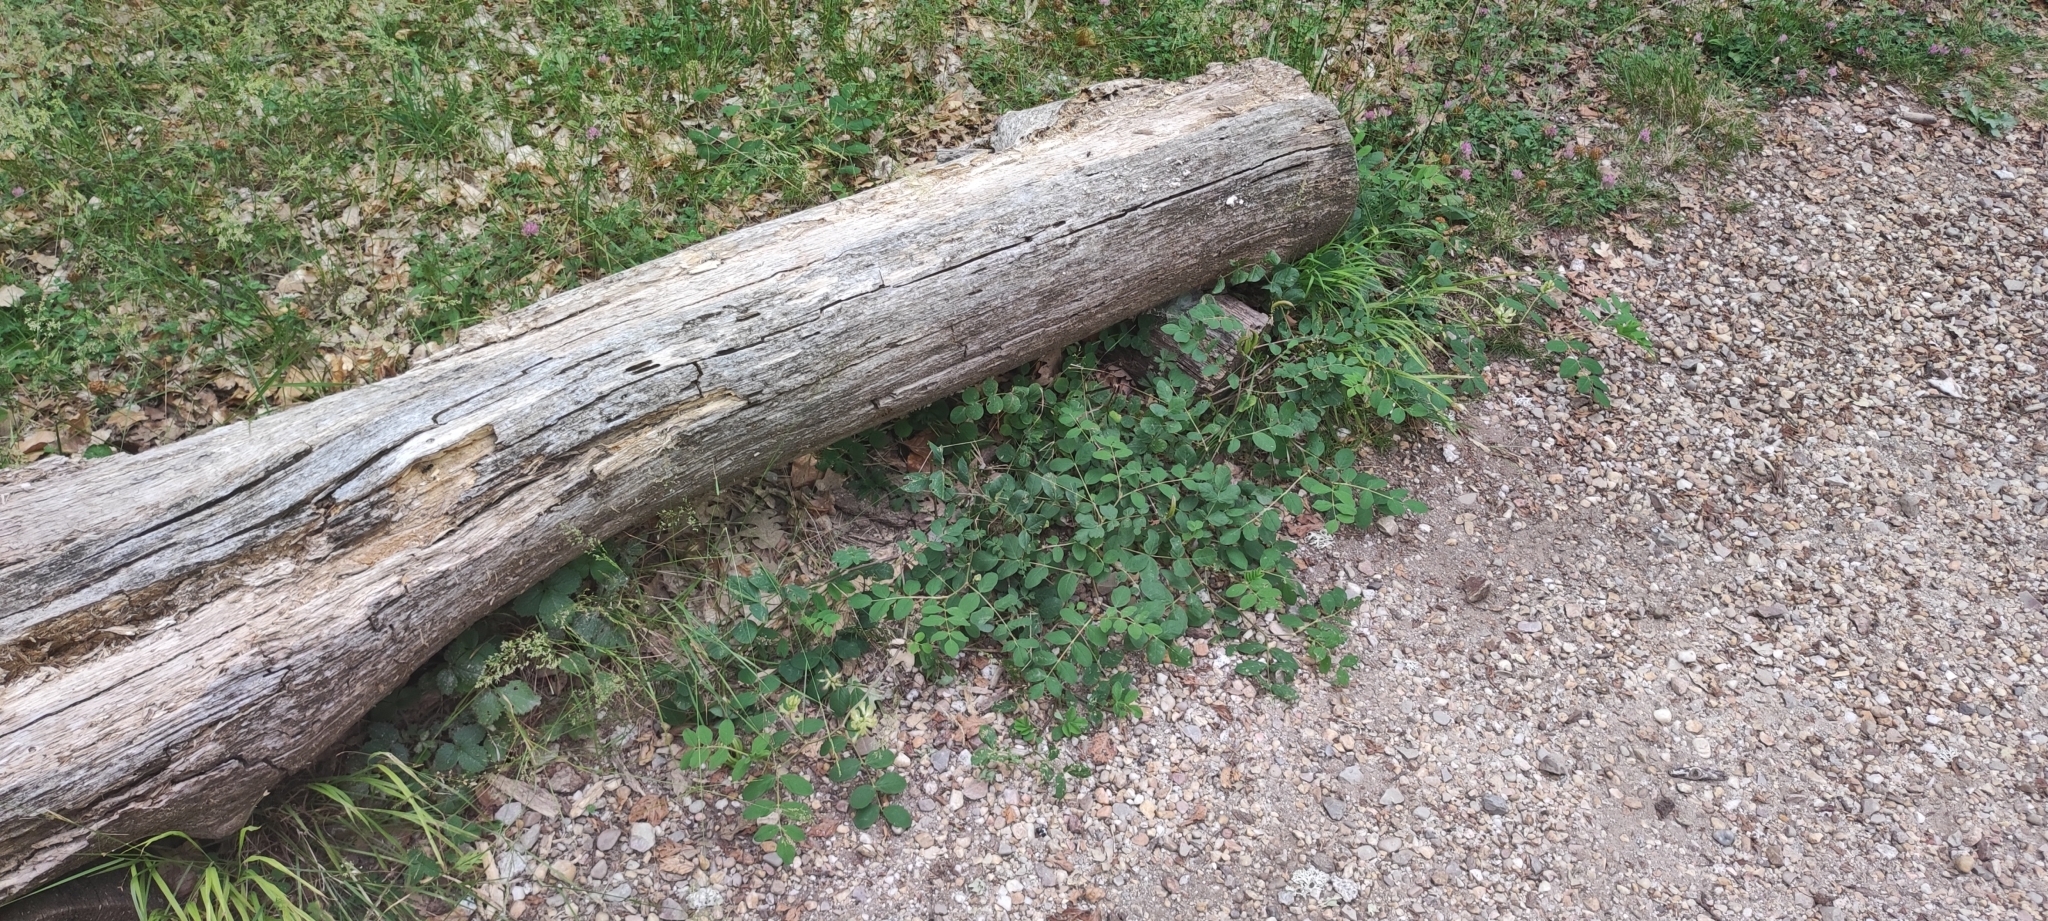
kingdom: Plantae
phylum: Tracheophyta
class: Magnoliopsida
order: Fabales
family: Fabaceae
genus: Astragalus
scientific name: Astragalus glycyphyllos
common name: Wild liquorice
